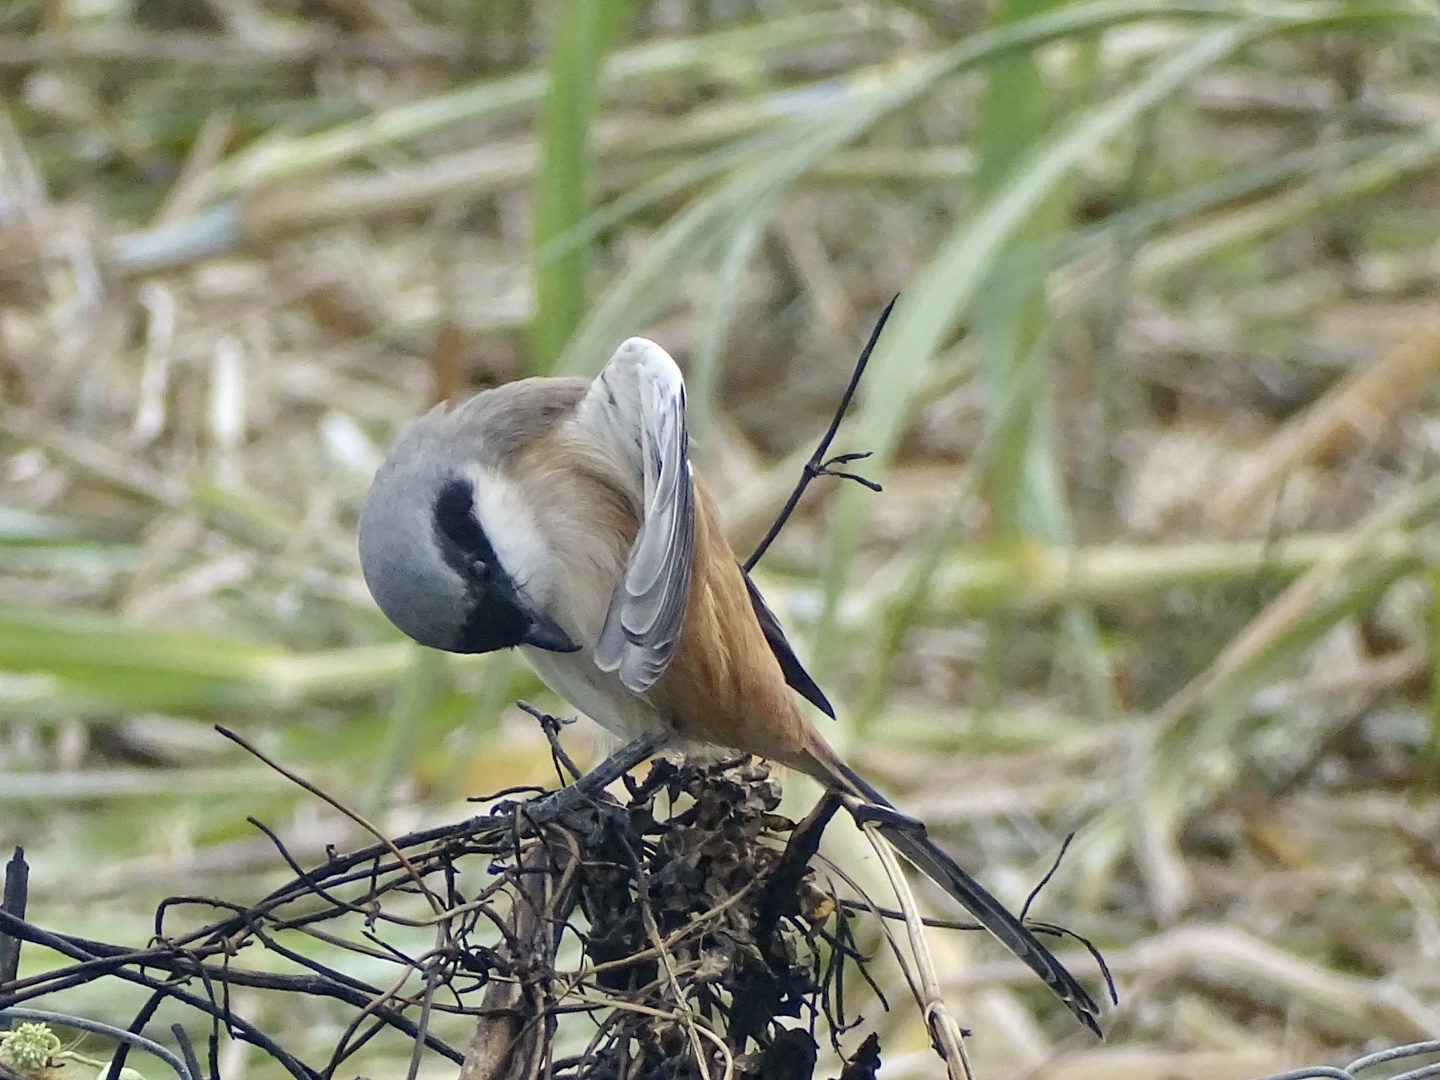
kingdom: Animalia
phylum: Chordata
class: Aves
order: Passeriformes
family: Laniidae
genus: Lanius
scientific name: Lanius schach
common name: Long-tailed shrike
